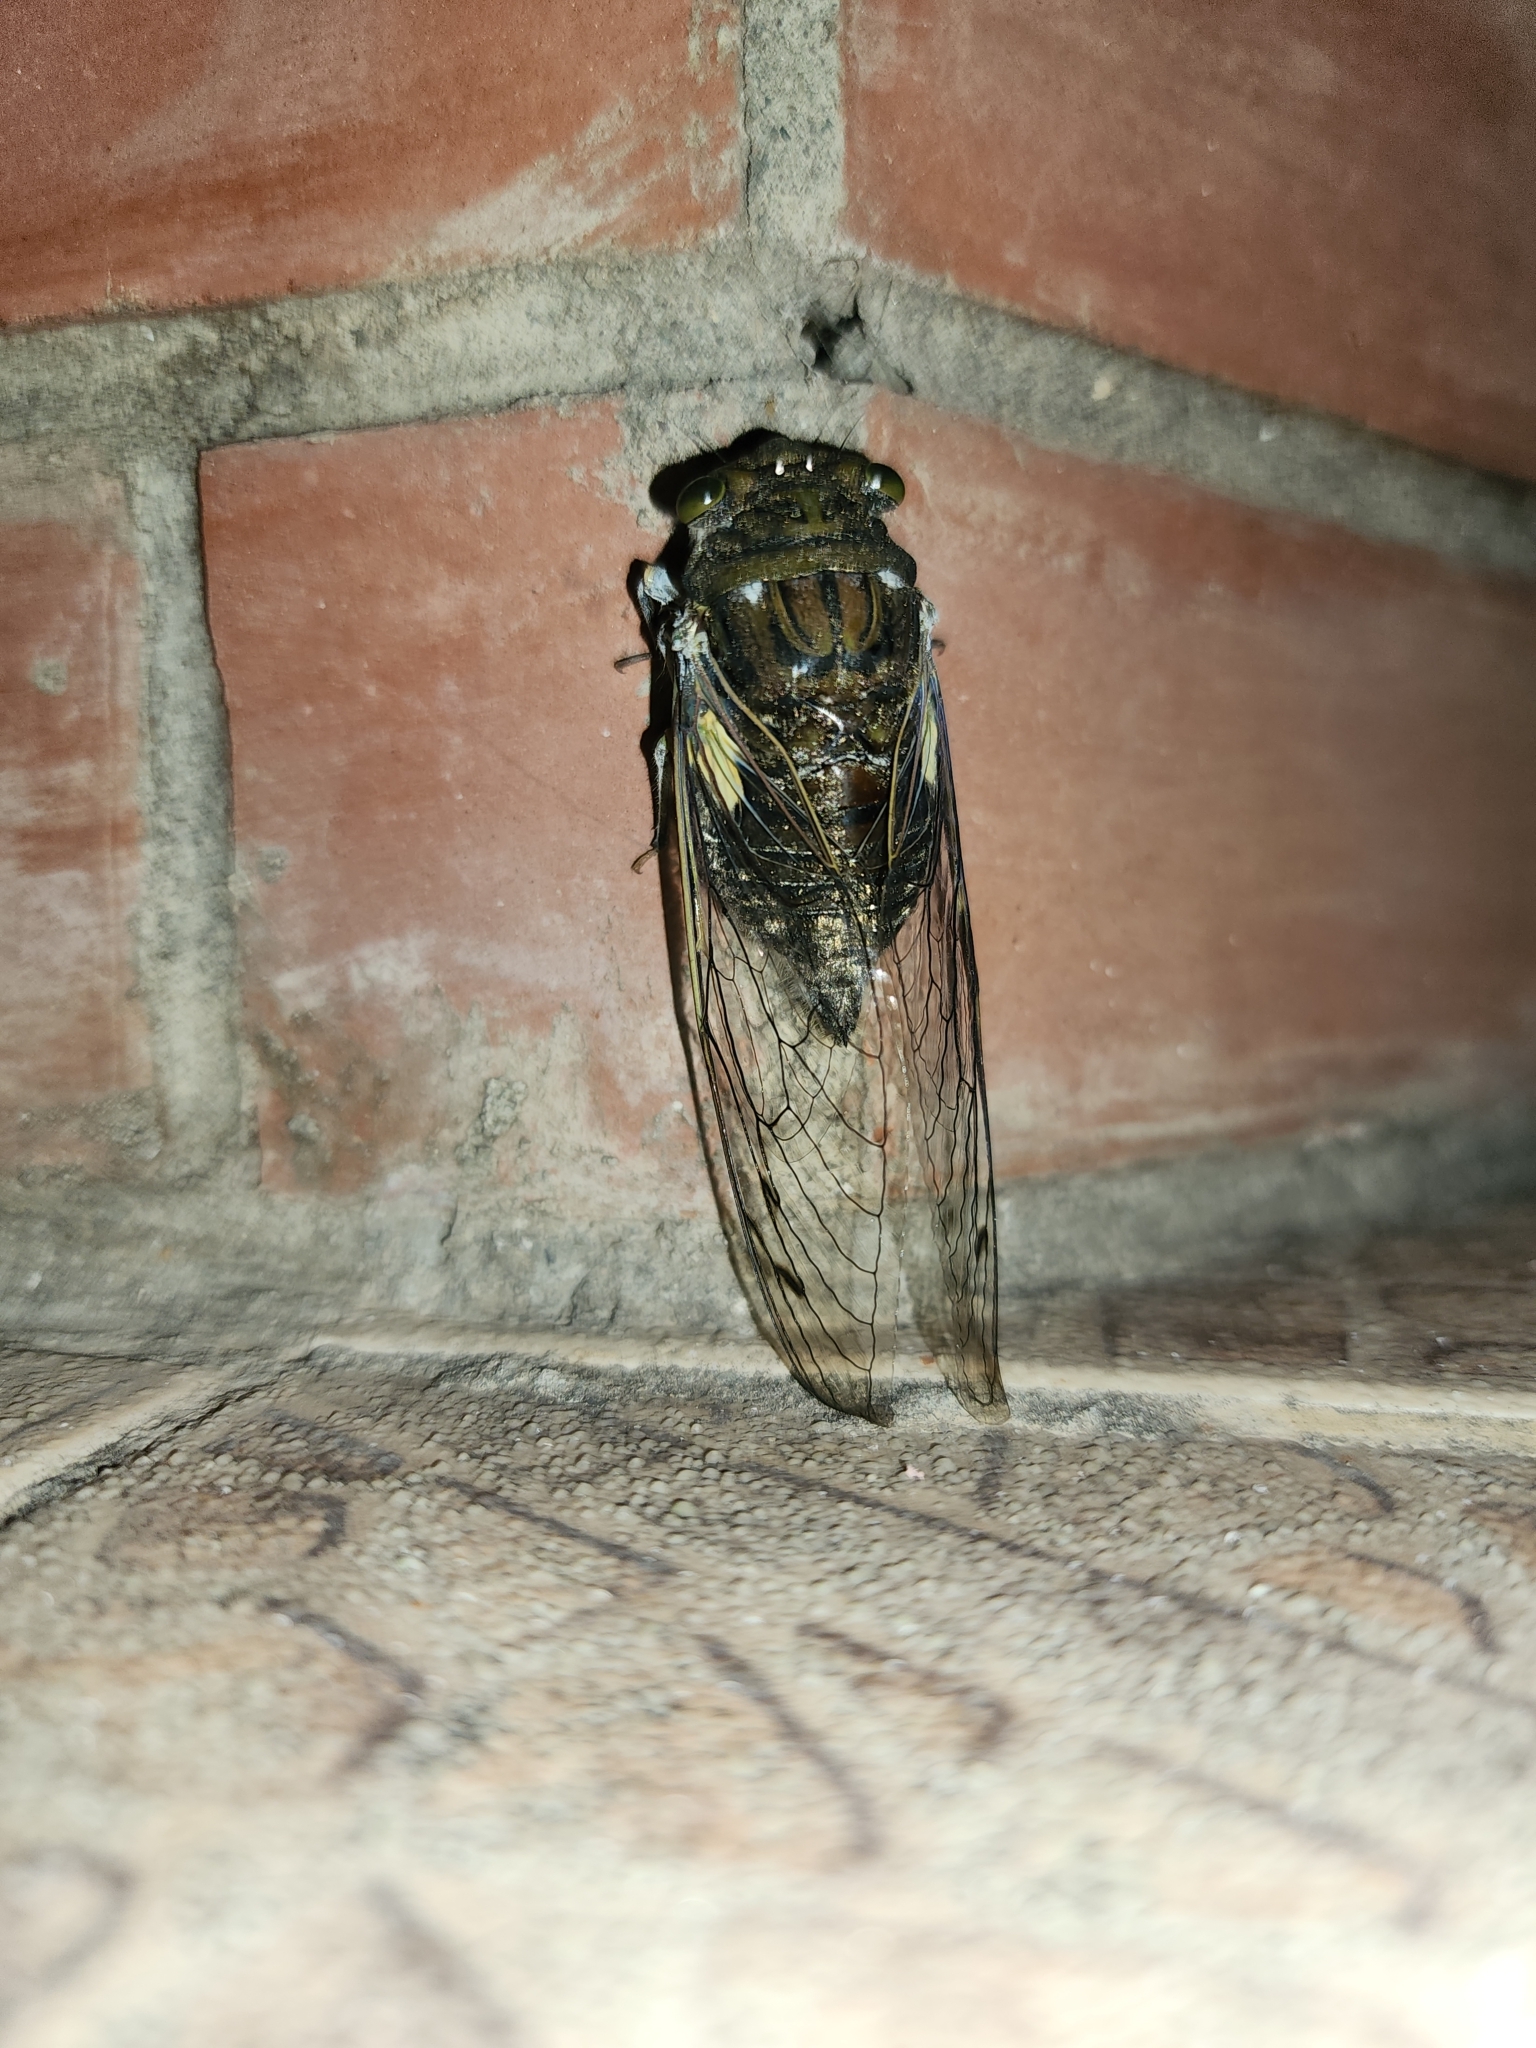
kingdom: Animalia
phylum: Arthropoda
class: Insecta
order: Hemiptera
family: Cicadidae
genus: Quesada
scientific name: Quesada gigas
